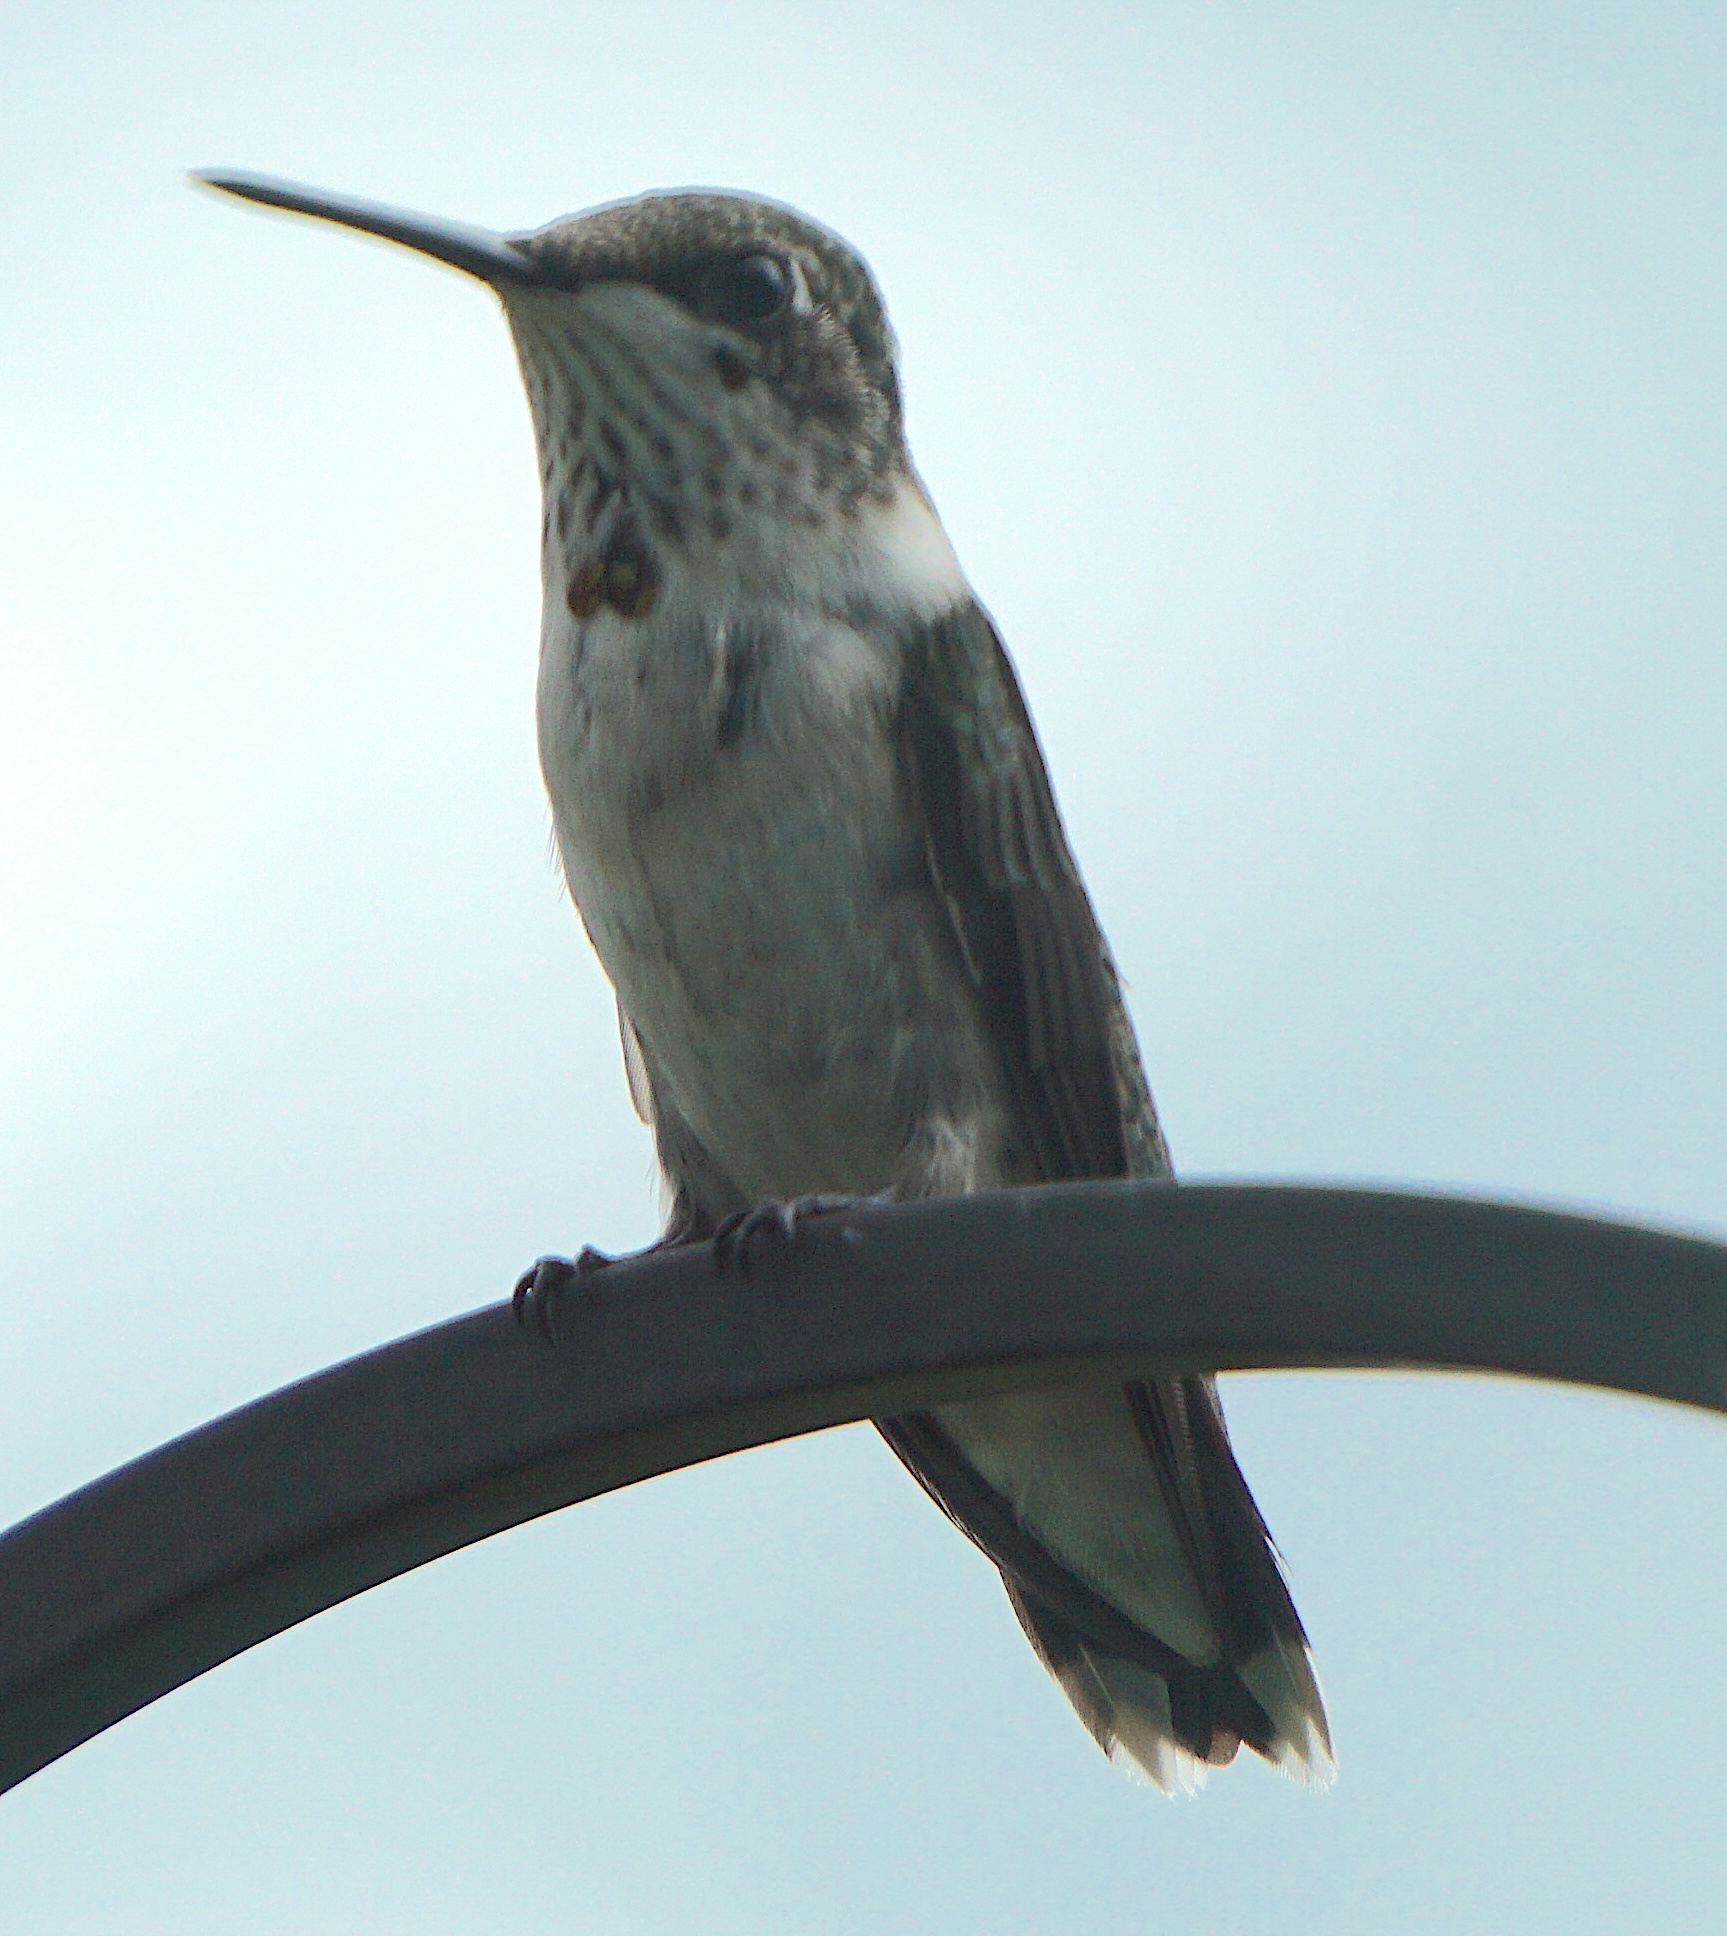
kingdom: Animalia
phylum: Chordata
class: Aves
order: Apodiformes
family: Trochilidae
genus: Archilochus
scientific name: Archilochus colubris
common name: Ruby-throated hummingbird
